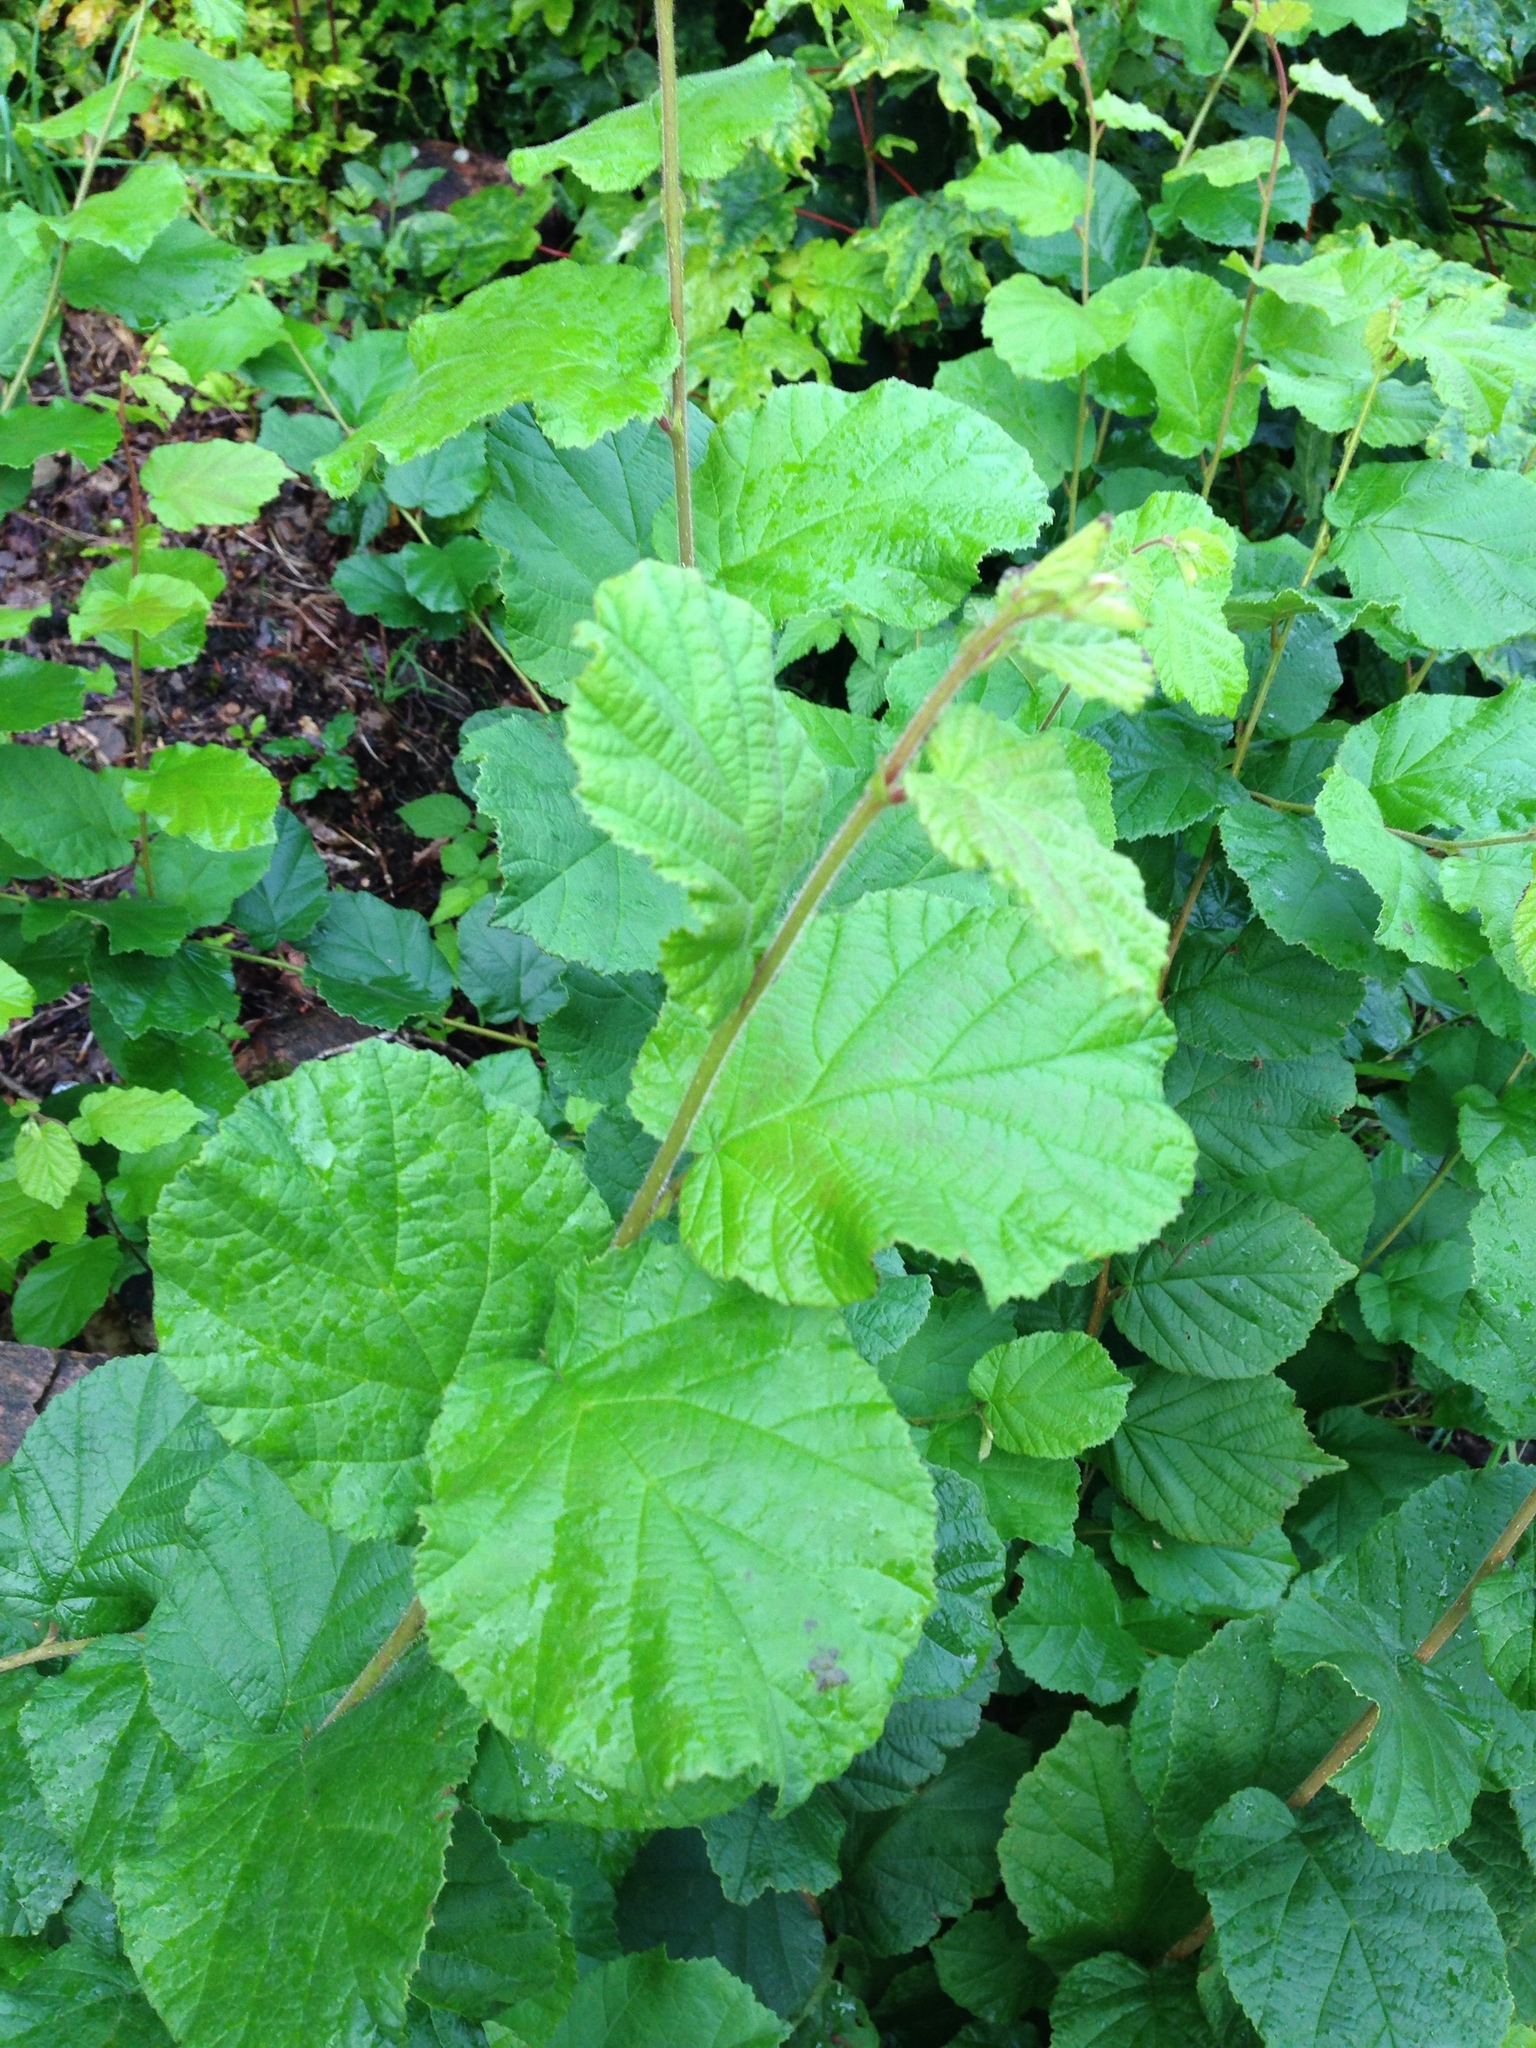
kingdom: Plantae
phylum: Tracheophyta
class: Magnoliopsida
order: Fagales
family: Betulaceae
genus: Corylus
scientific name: Corylus avellana
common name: European hazel
